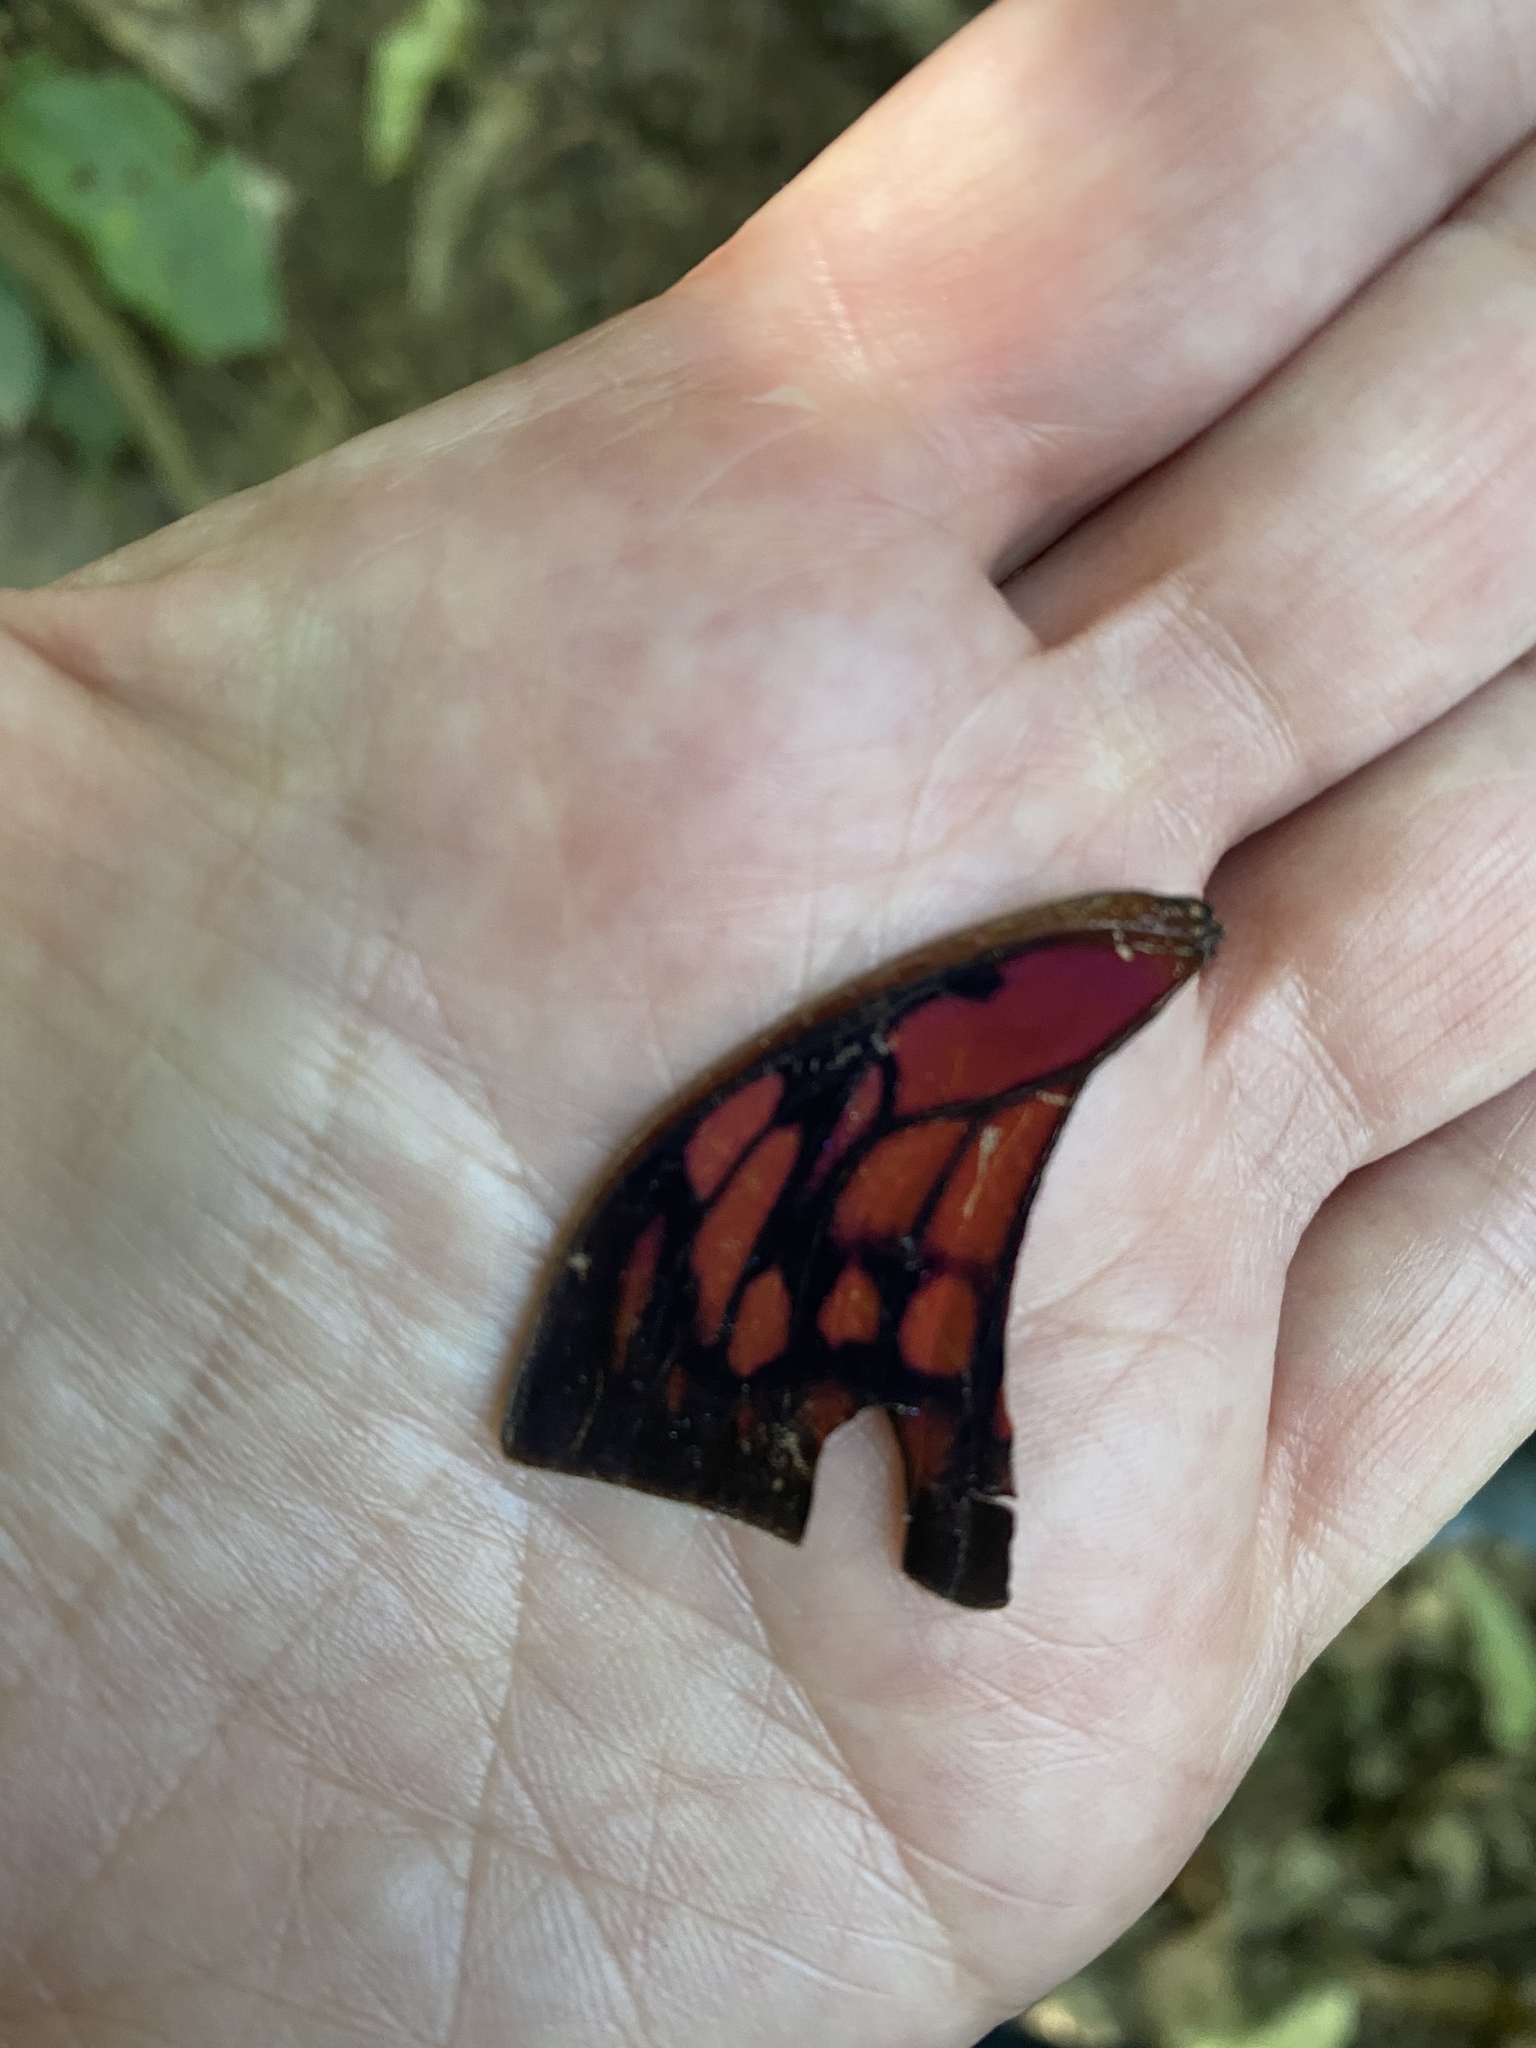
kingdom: Animalia
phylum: Arthropoda
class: Insecta
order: Lepidoptera
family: Nymphalidae
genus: Fountainea
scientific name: Fountainea
